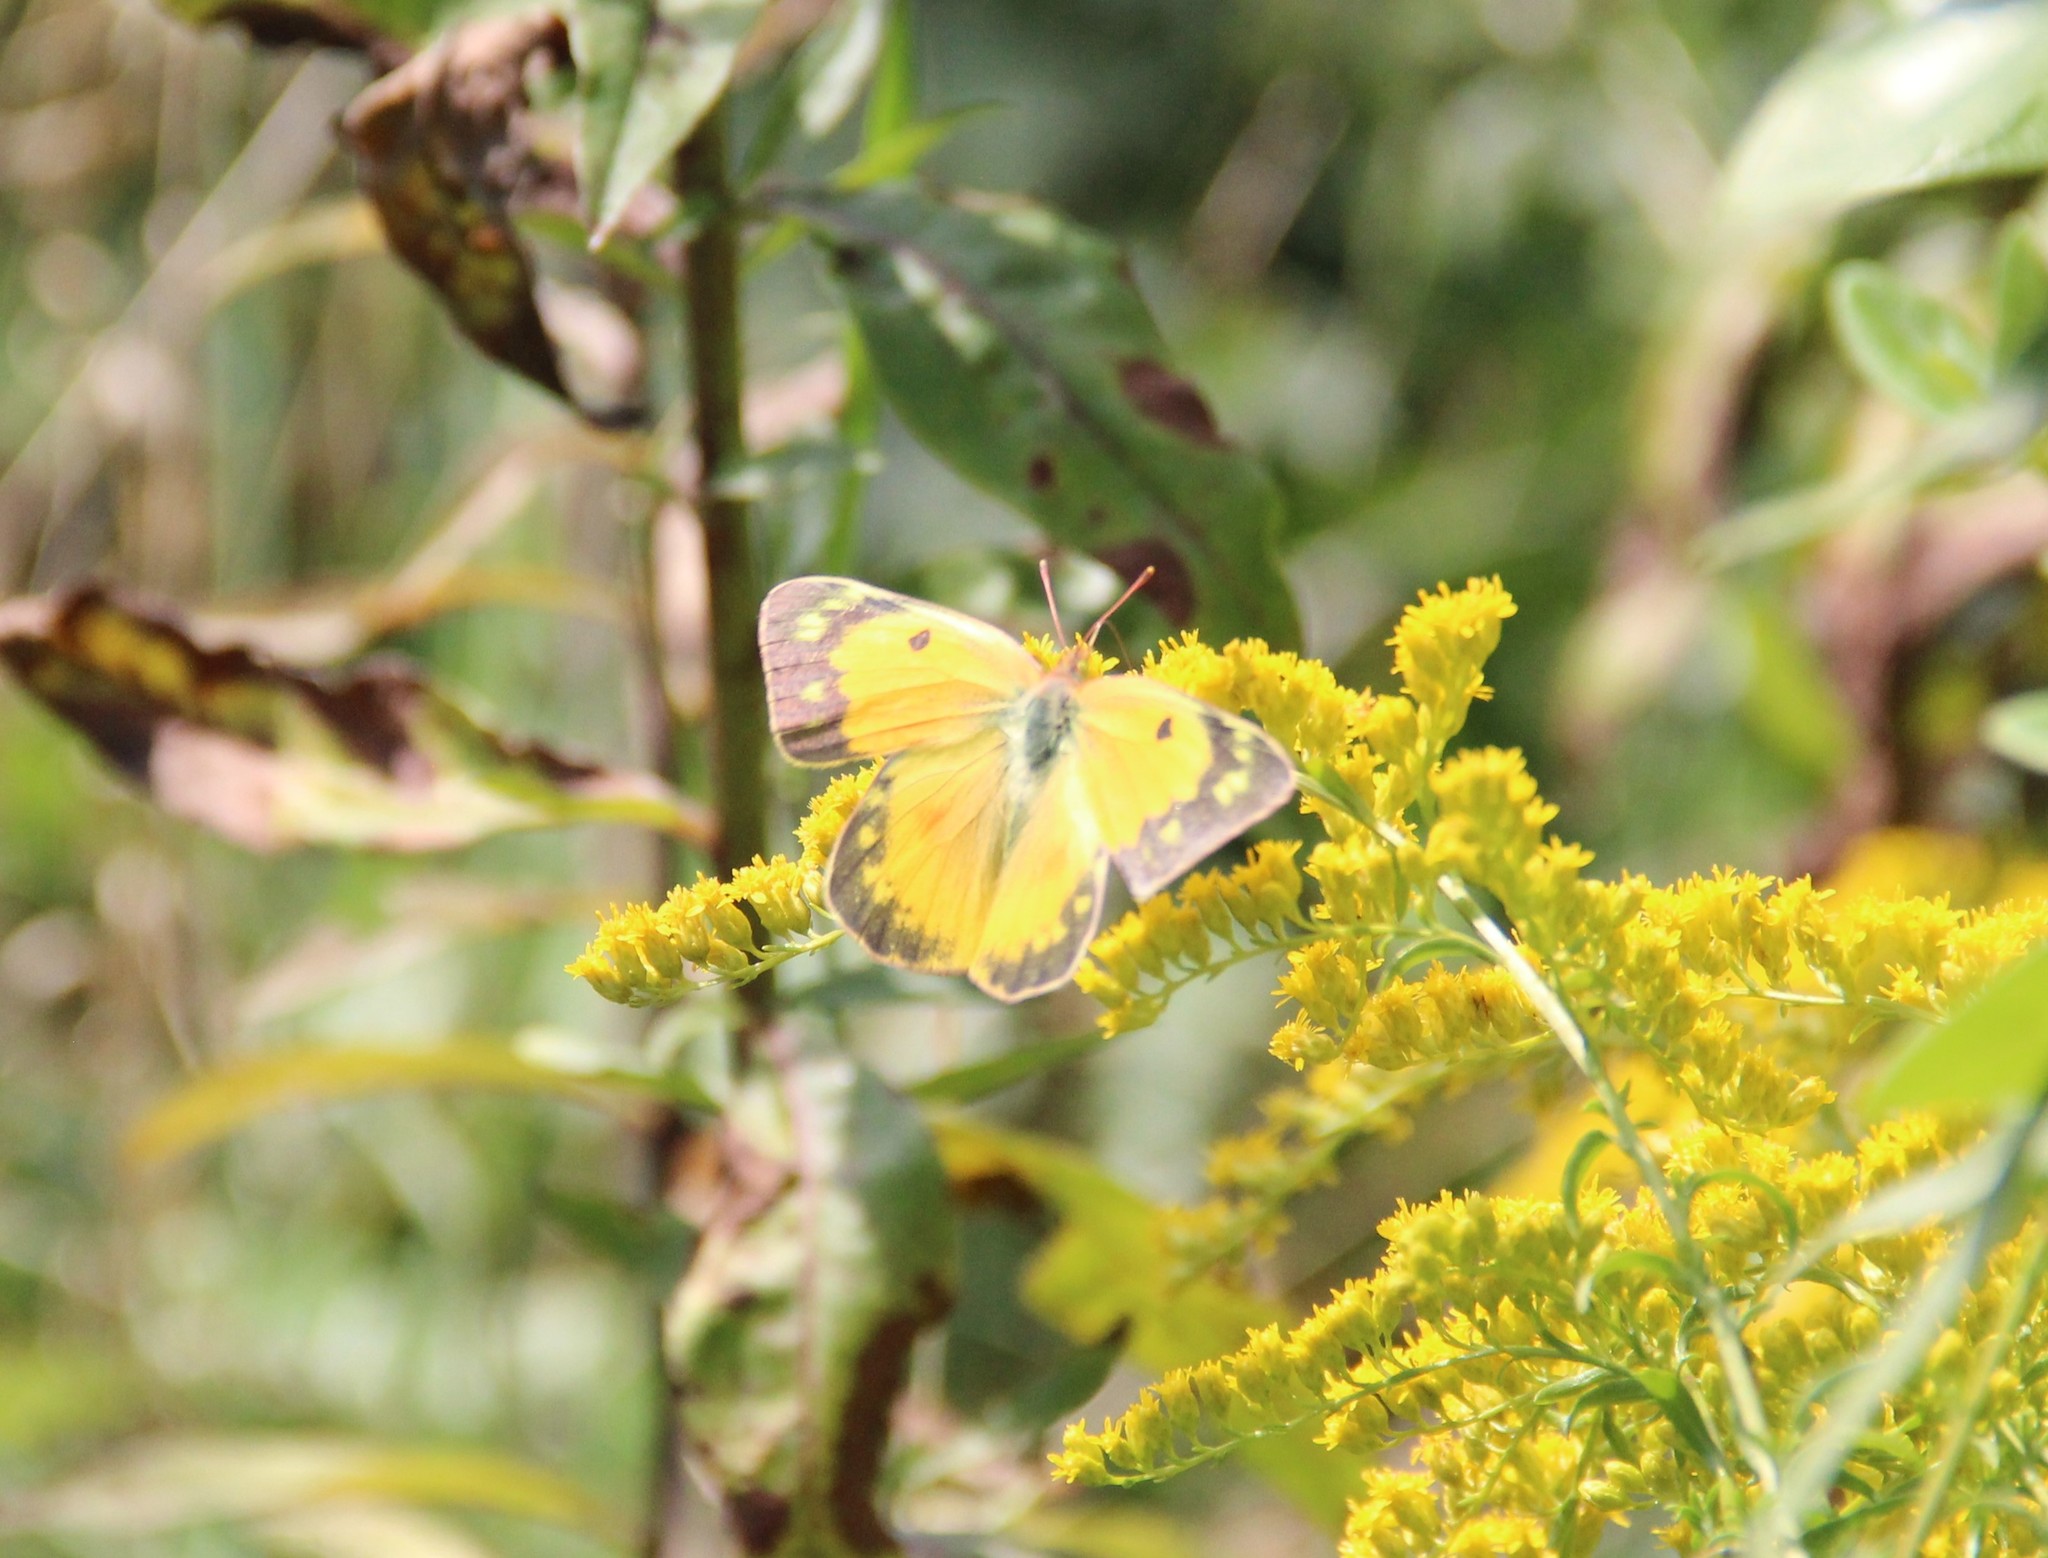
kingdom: Animalia
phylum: Arthropoda
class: Insecta
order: Lepidoptera
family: Pieridae
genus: Colias
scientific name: Colias eurytheme
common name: Alfalfa butterfly
